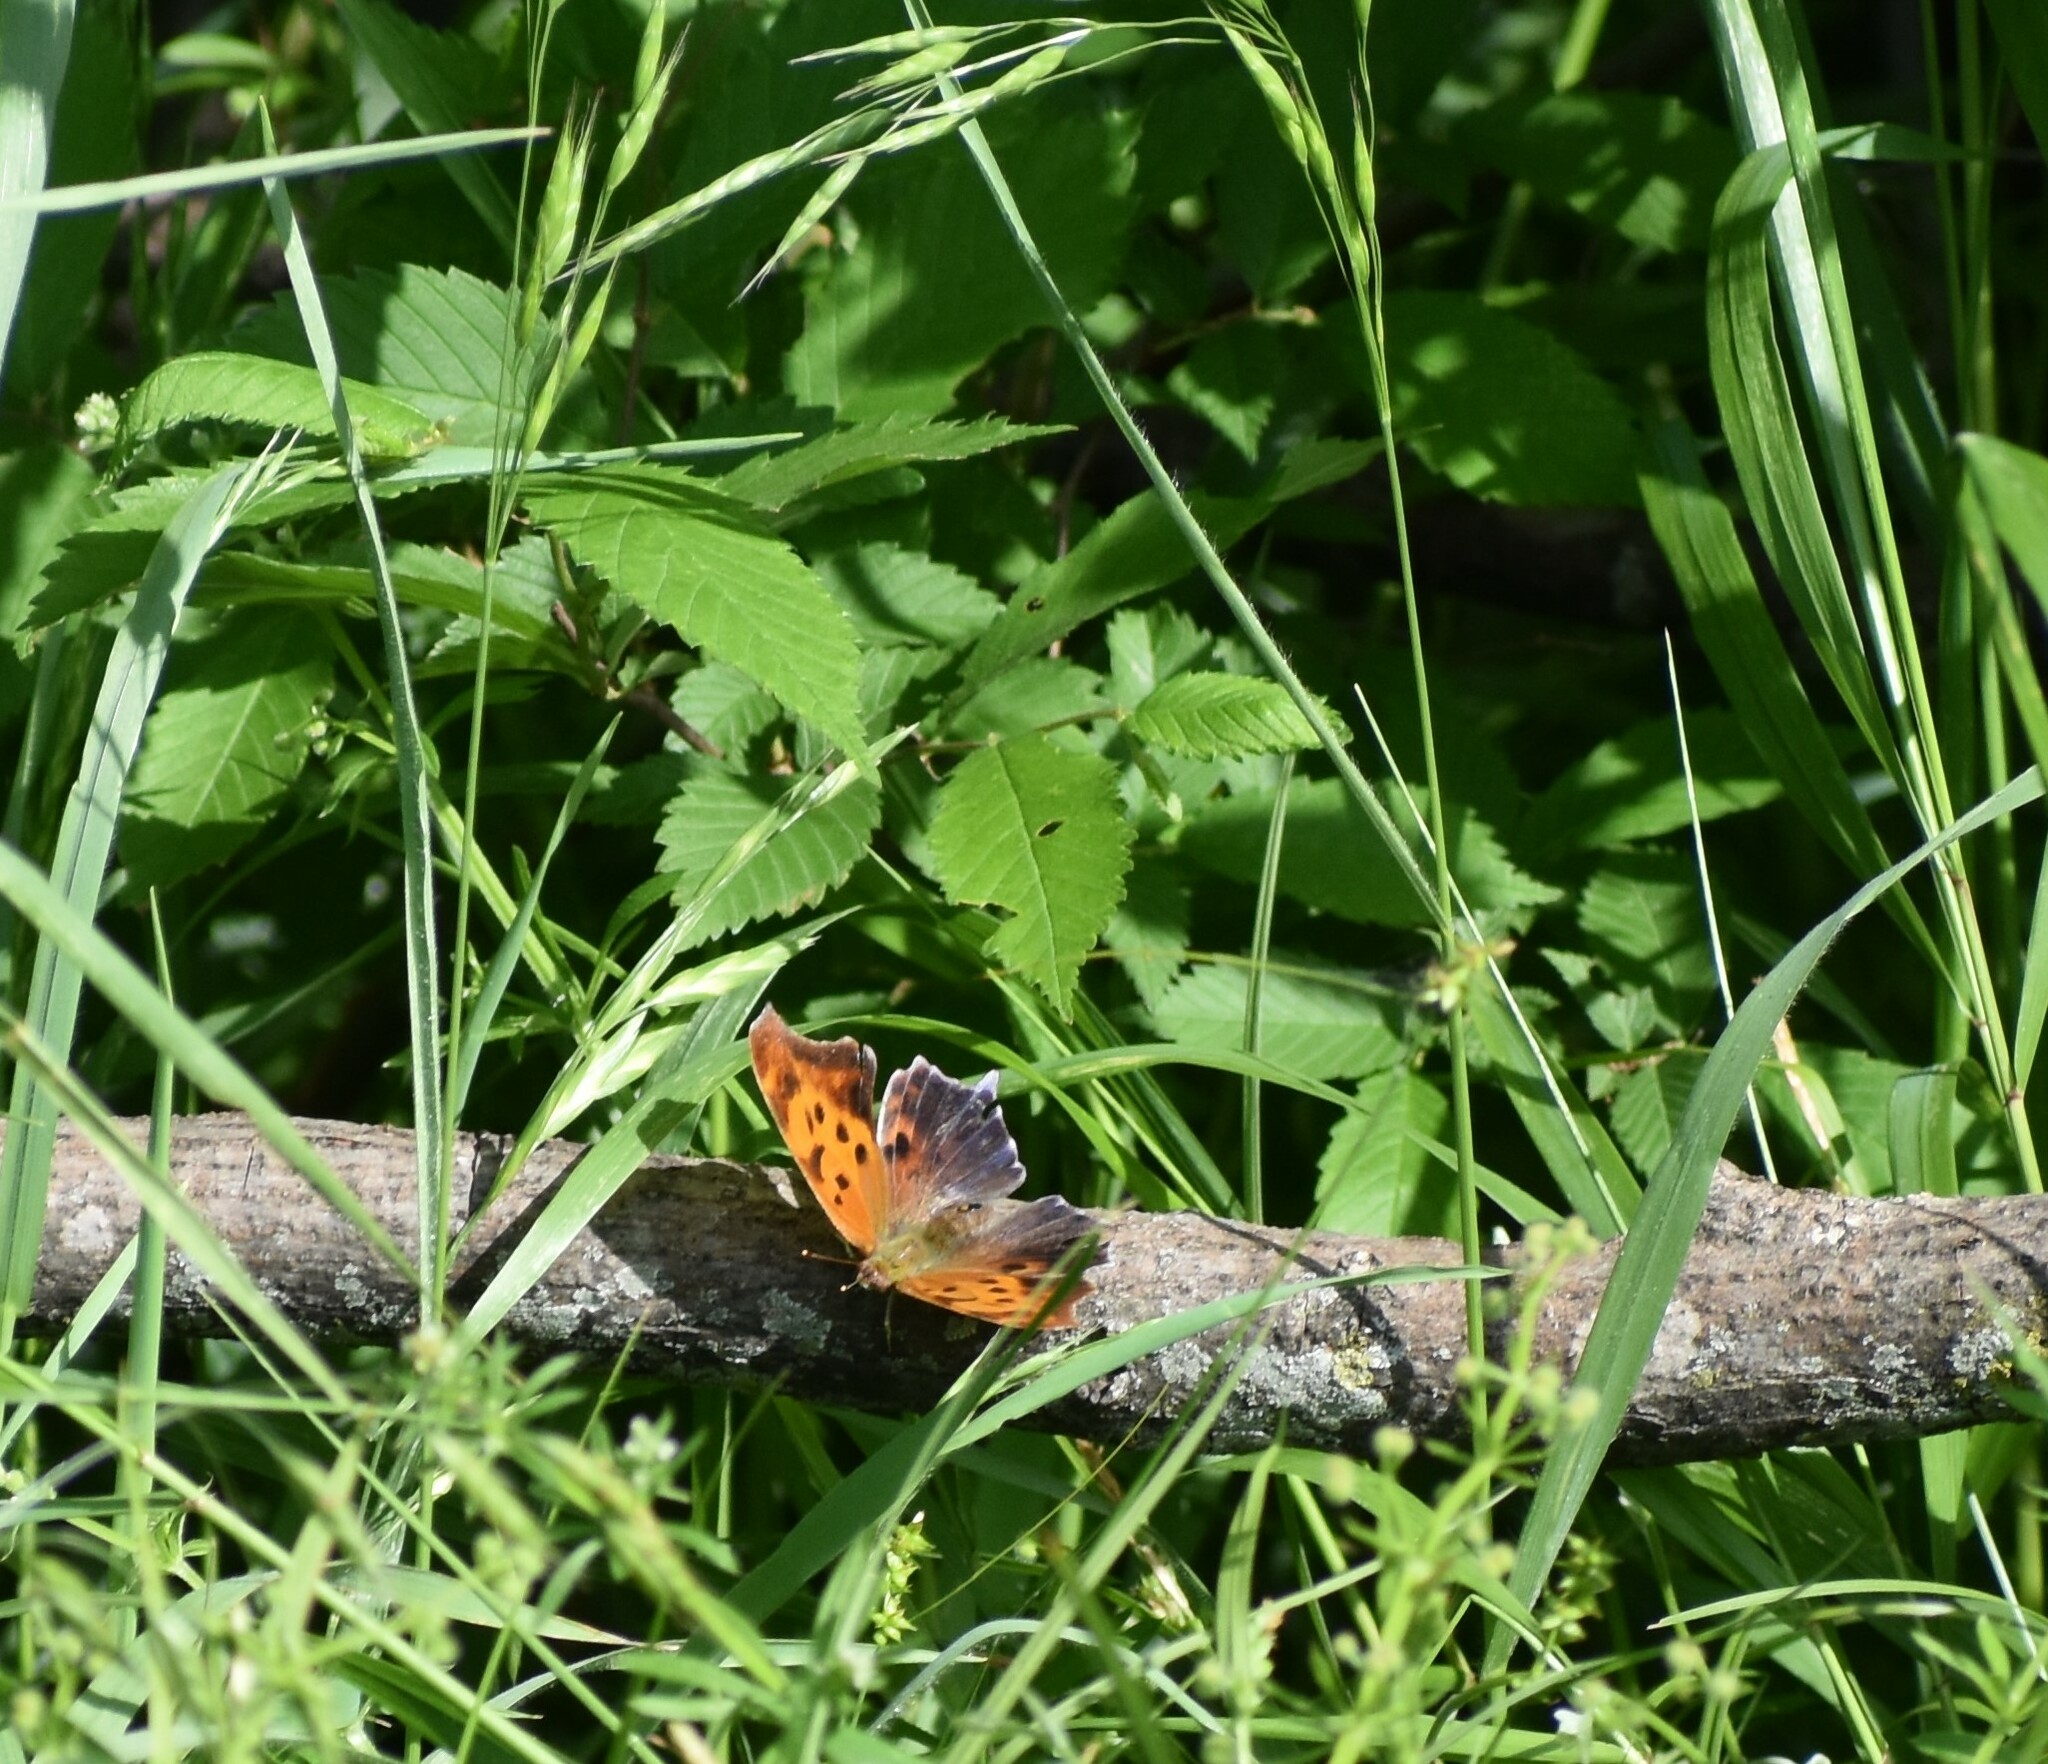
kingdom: Animalia
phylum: Arthropoda
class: Insecta
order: Lepidoptera
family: Nymphalidae
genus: Polygonia
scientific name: Polygonia interrogationis
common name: Question mark
